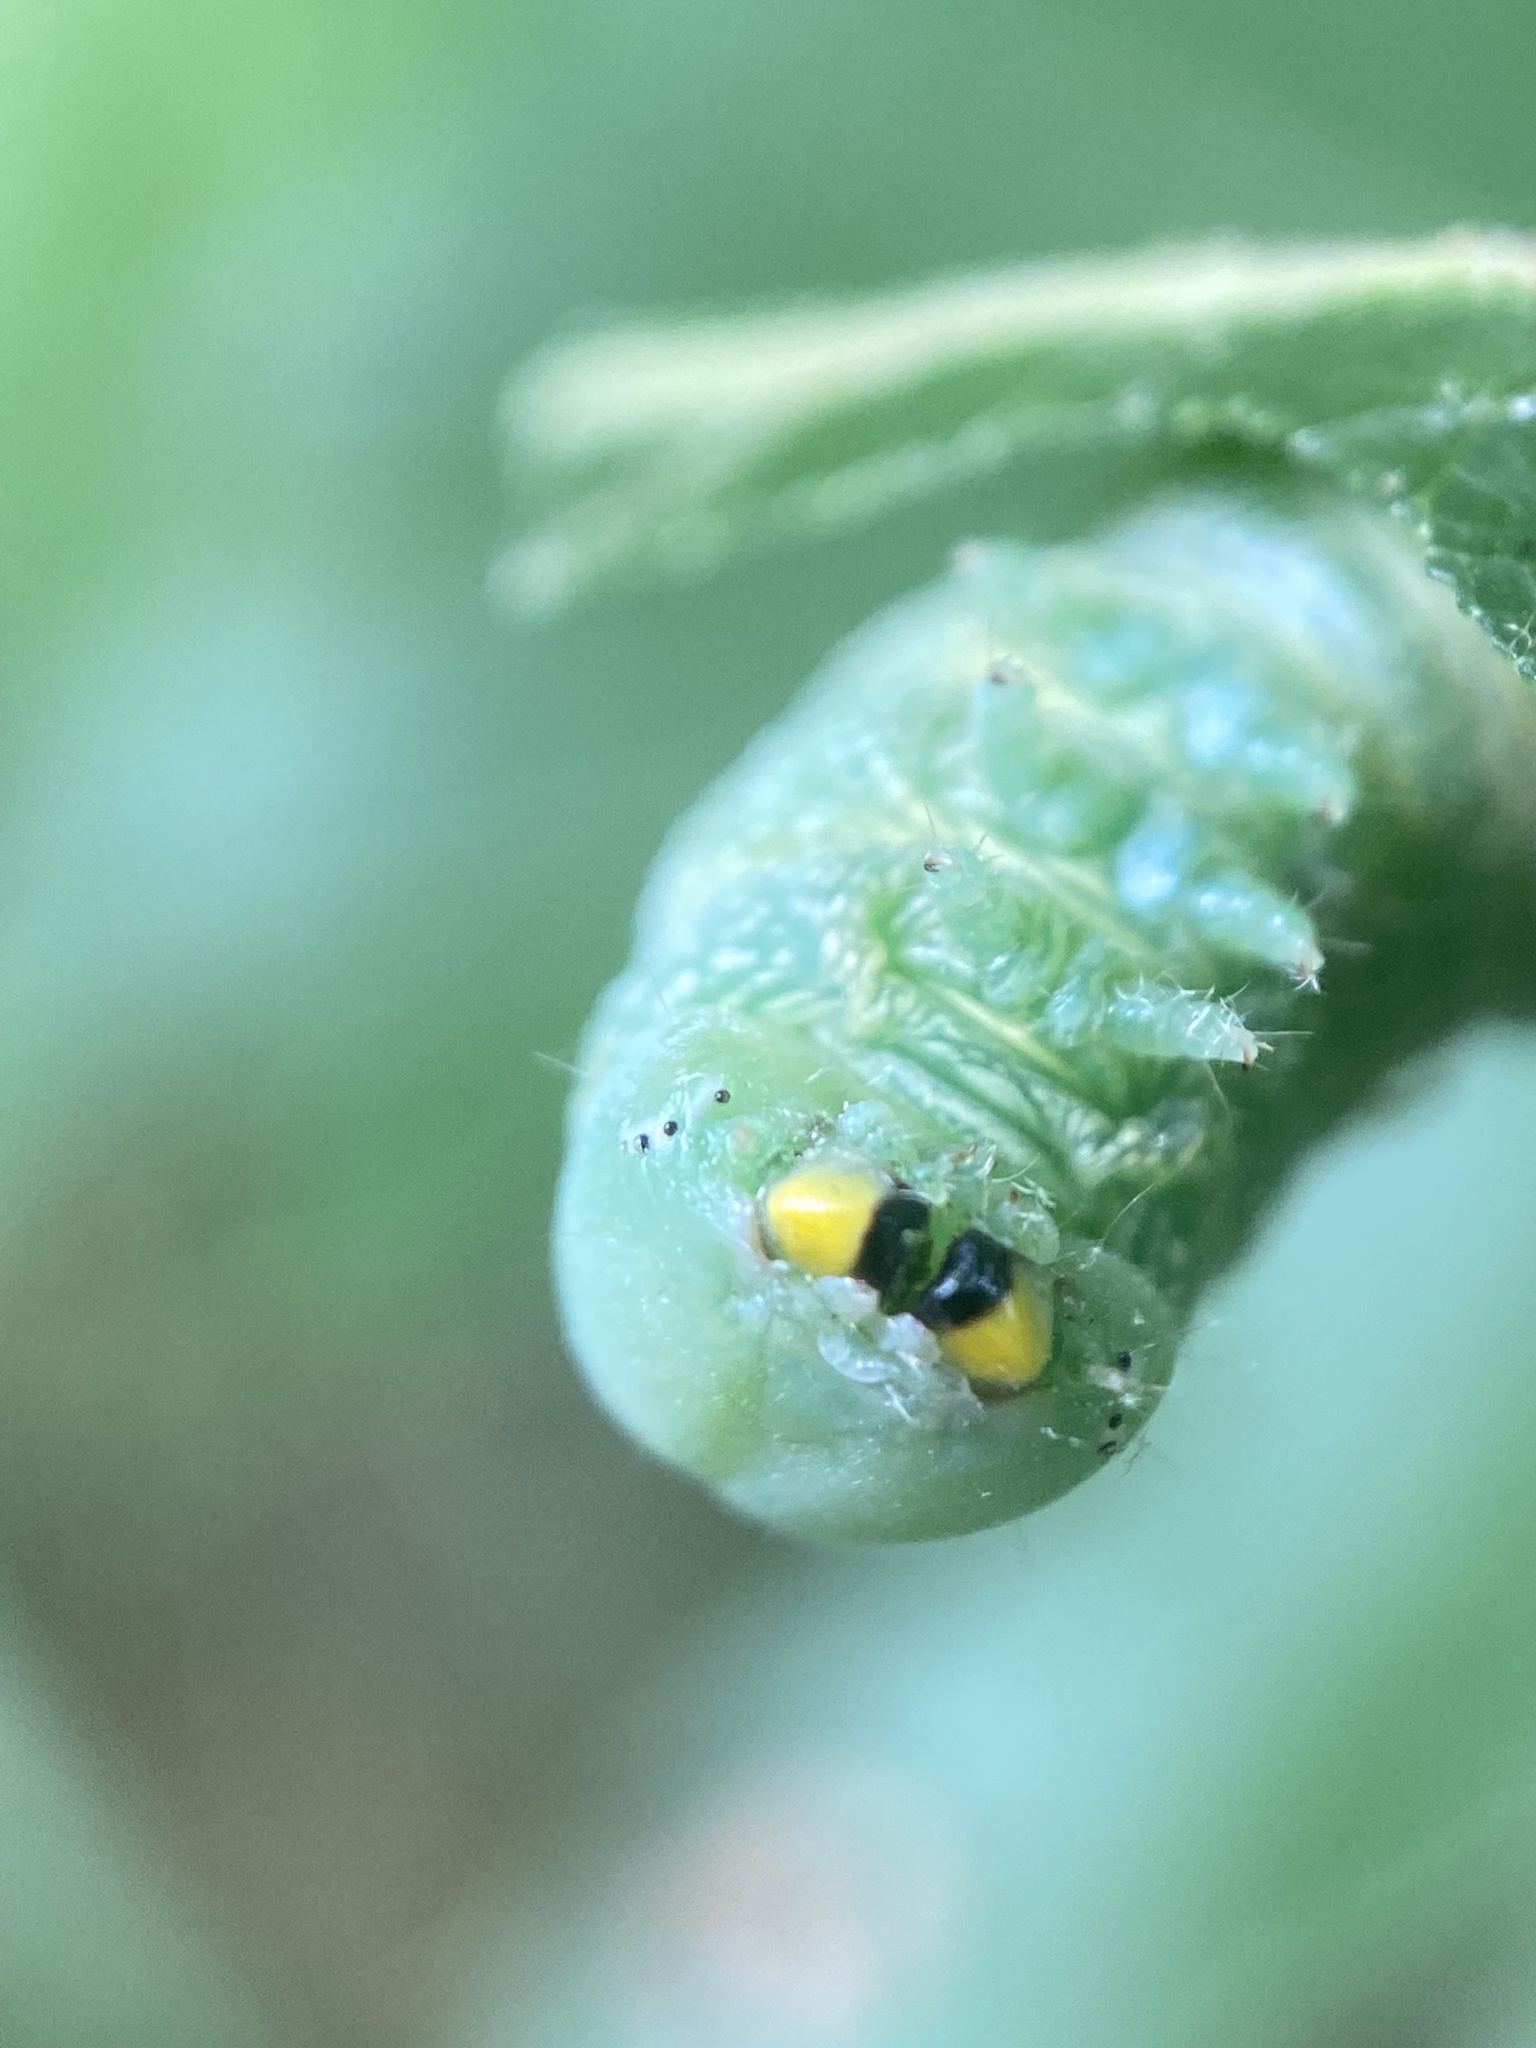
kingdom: Animalia
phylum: Arthropoda
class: Insecta
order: Lepidoptera
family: Notodontidae
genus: Nadata
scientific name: Nadata gibbosa
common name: White-dotted prominent
